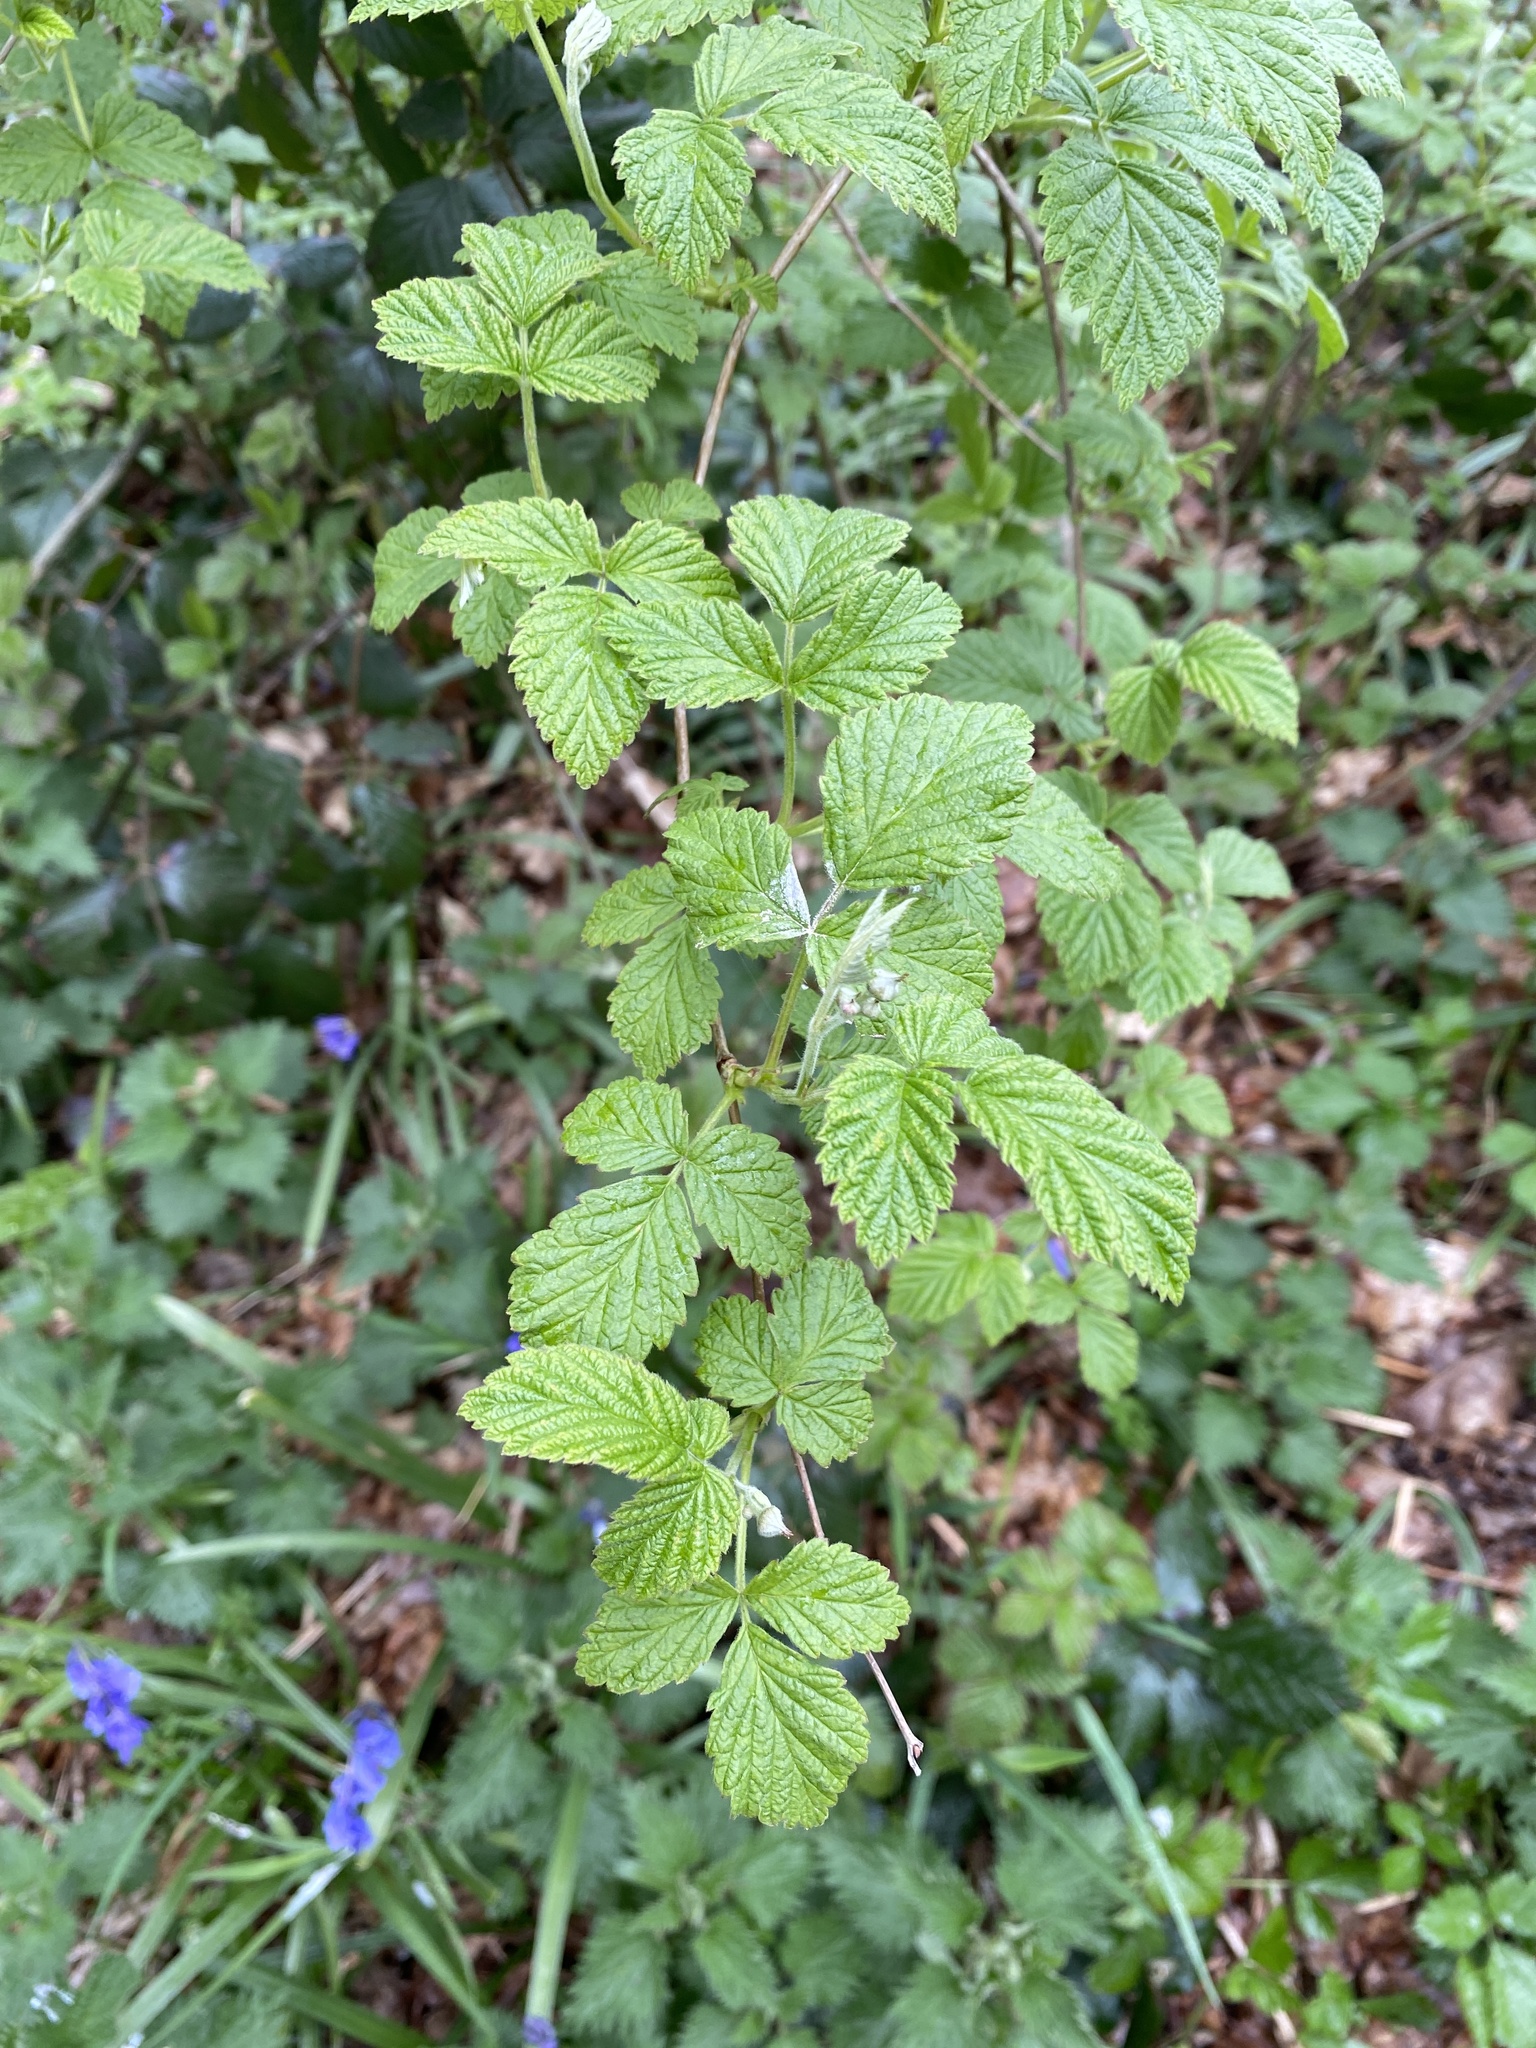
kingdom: Plantae
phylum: Tracheophyta
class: Magnoliopsida
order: Rosales
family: Rosaceae
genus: Rubus
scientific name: Rubus idaeus
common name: Raspberry
